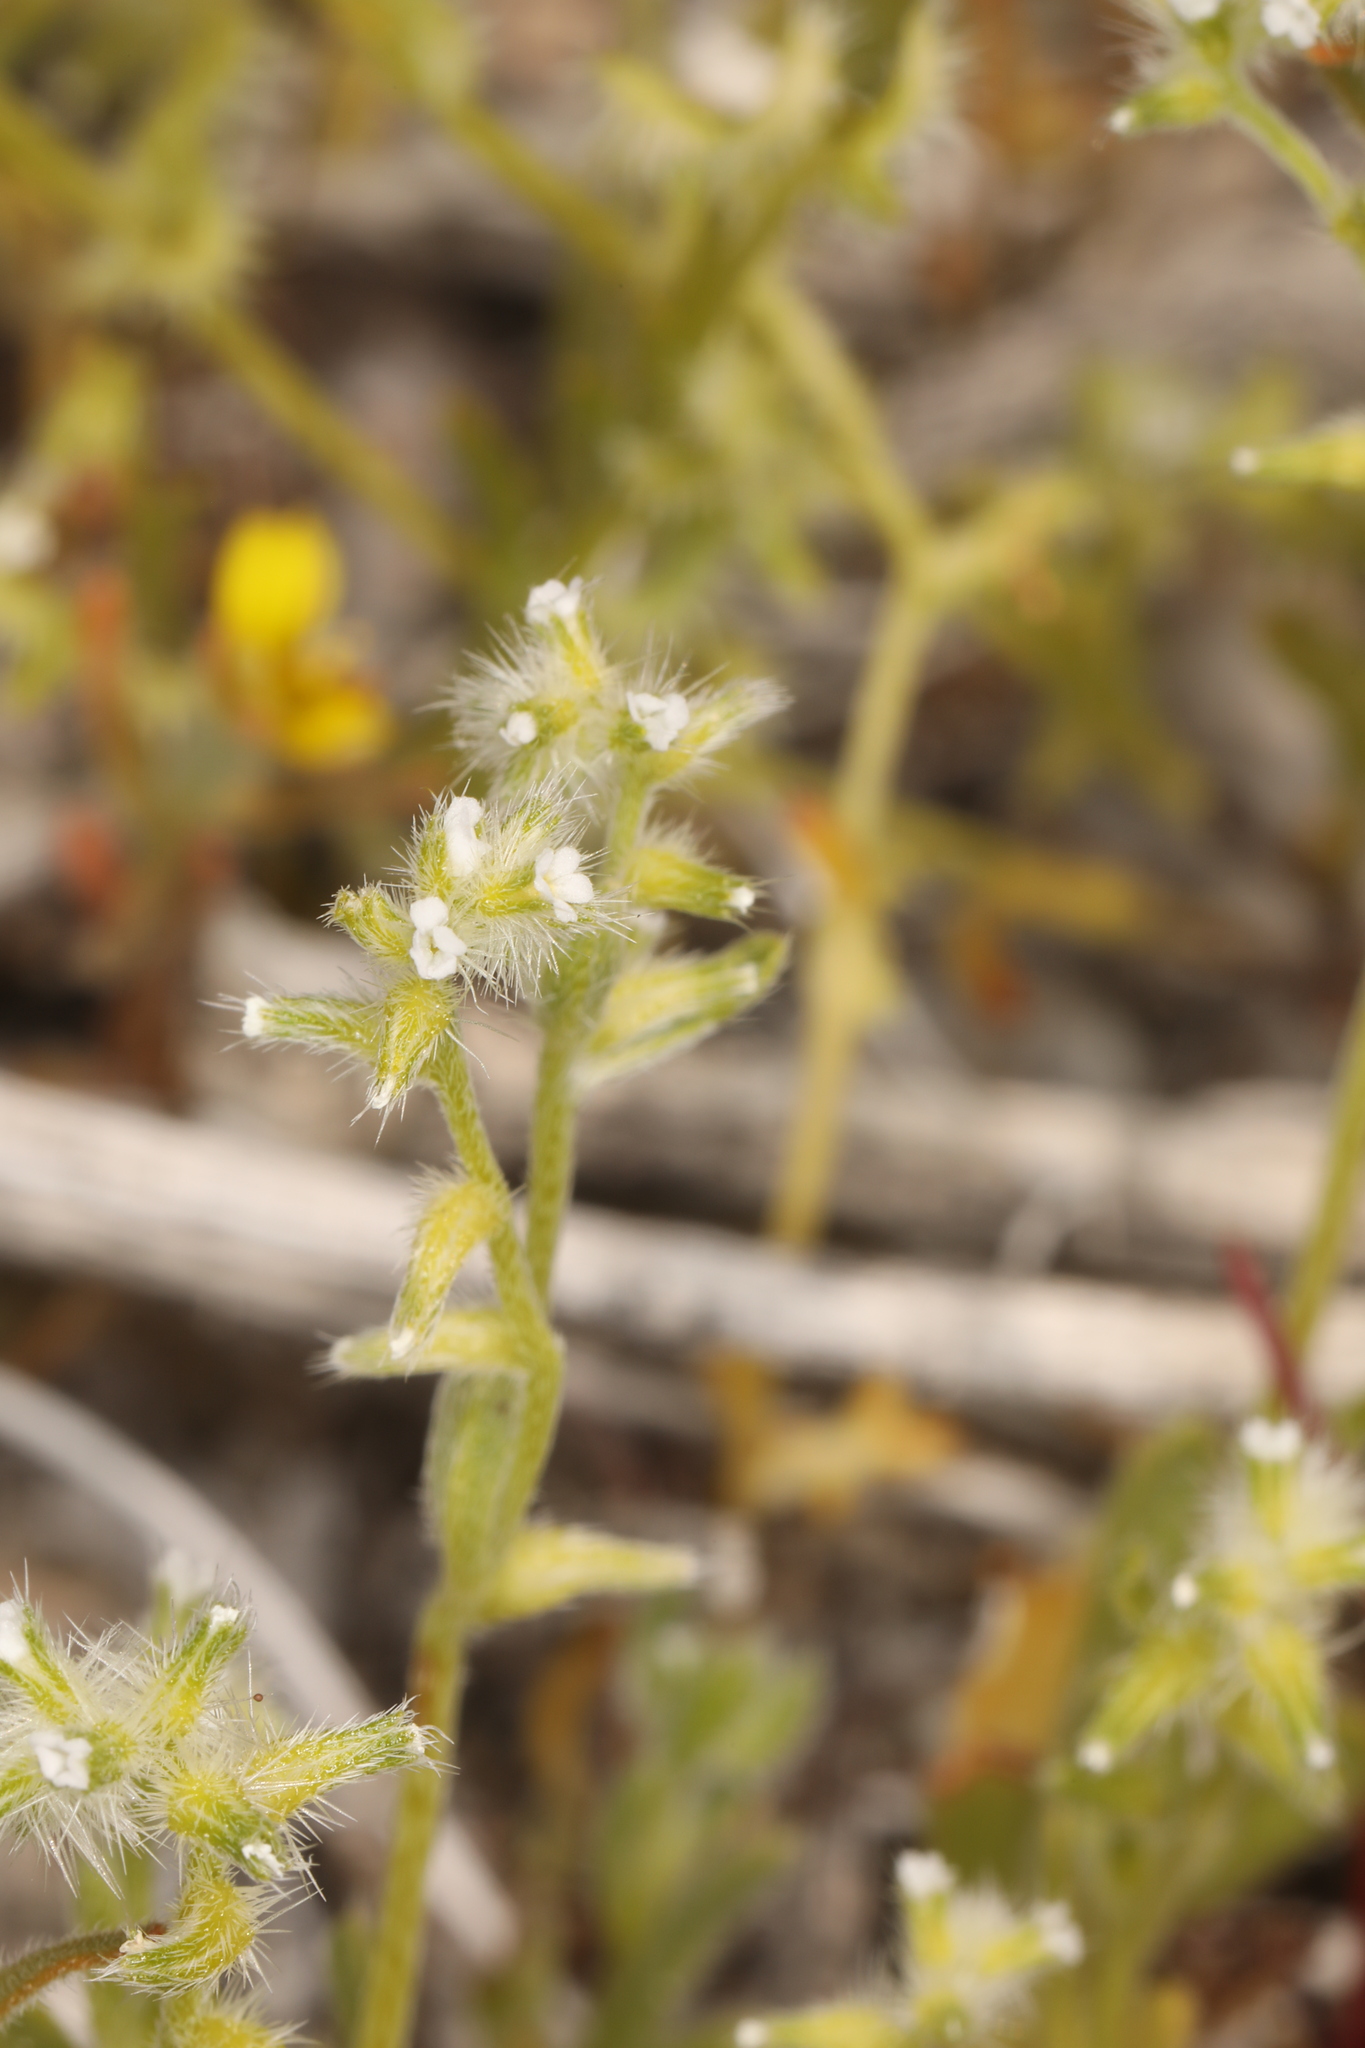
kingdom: Plantae
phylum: Tracheophyta
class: Magnoliopsida
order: Boraginales
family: Boraginaceae
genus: Cryptantha
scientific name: Cryptantha recurvata
